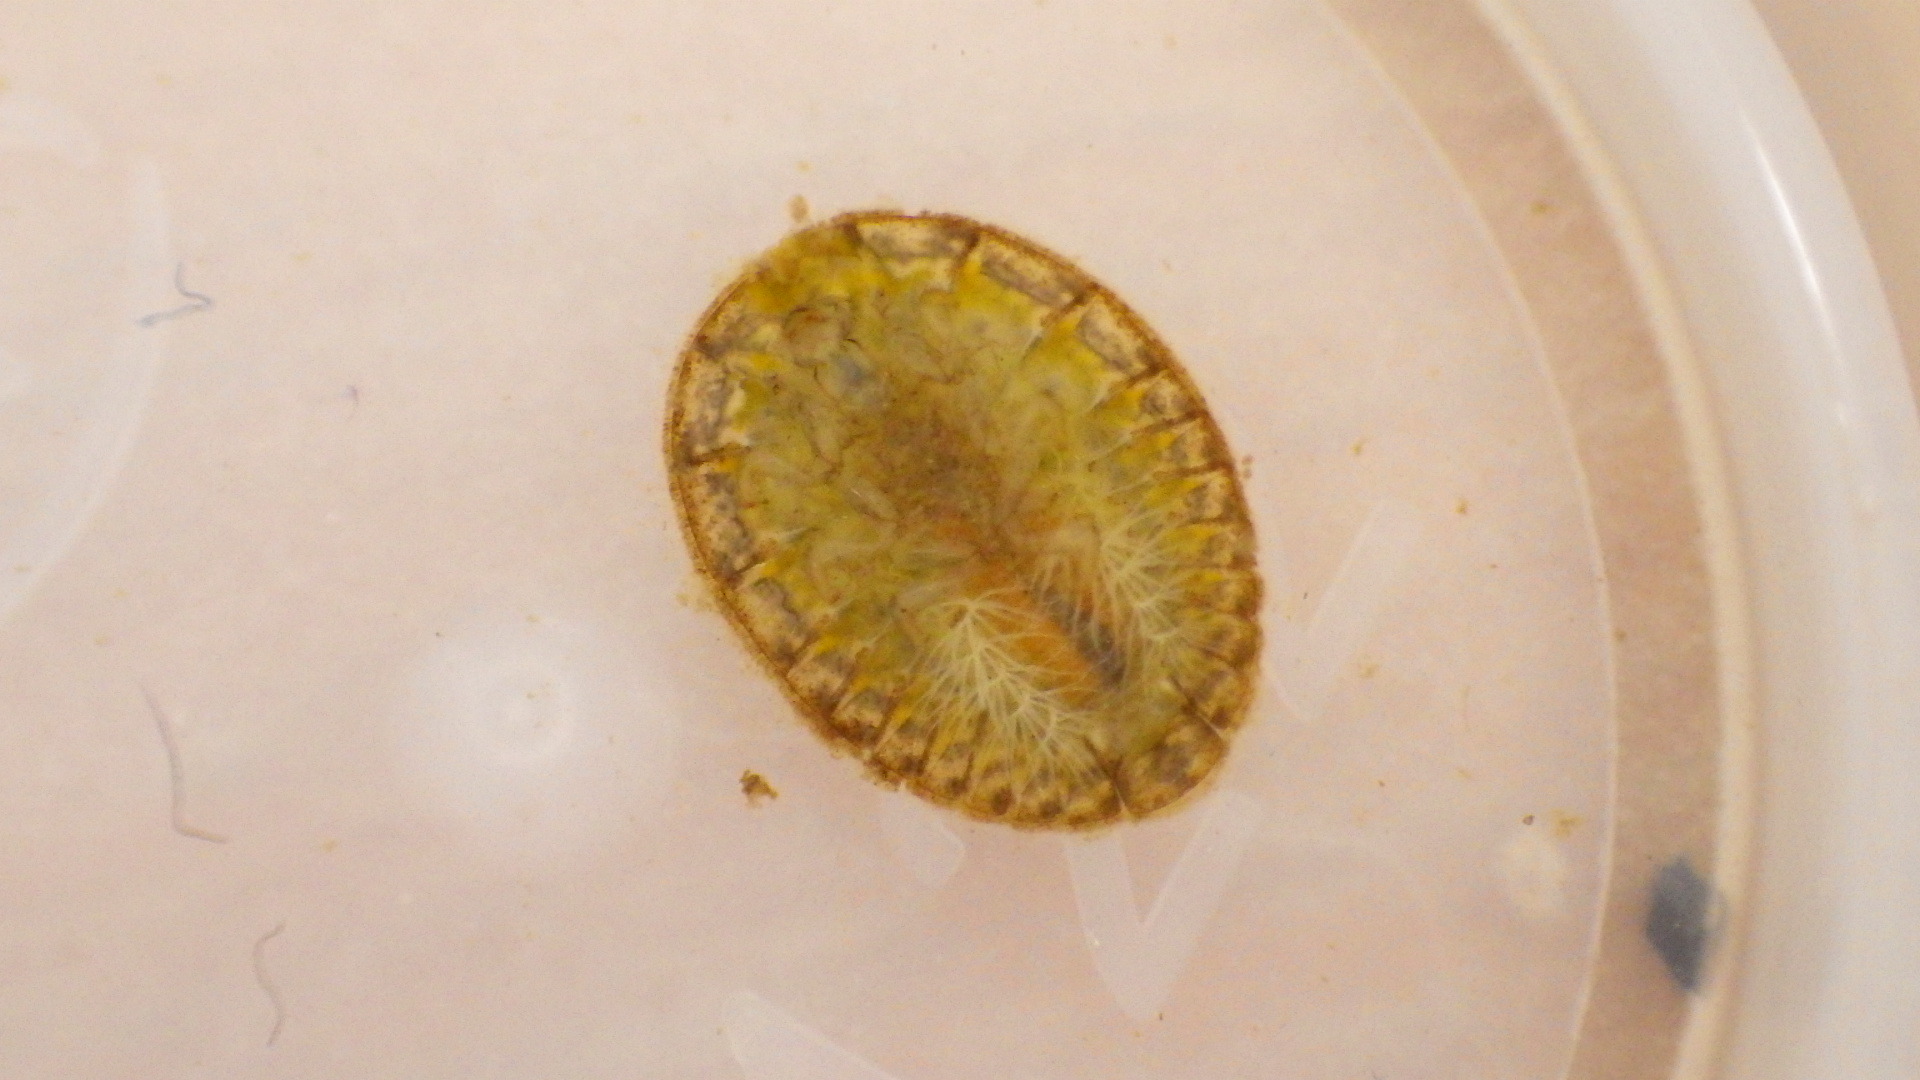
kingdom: Animalia
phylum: Arthropoda
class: Insecta
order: Coleoptera
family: Psephenidae
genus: Psephenus
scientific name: Psephenus herricki
